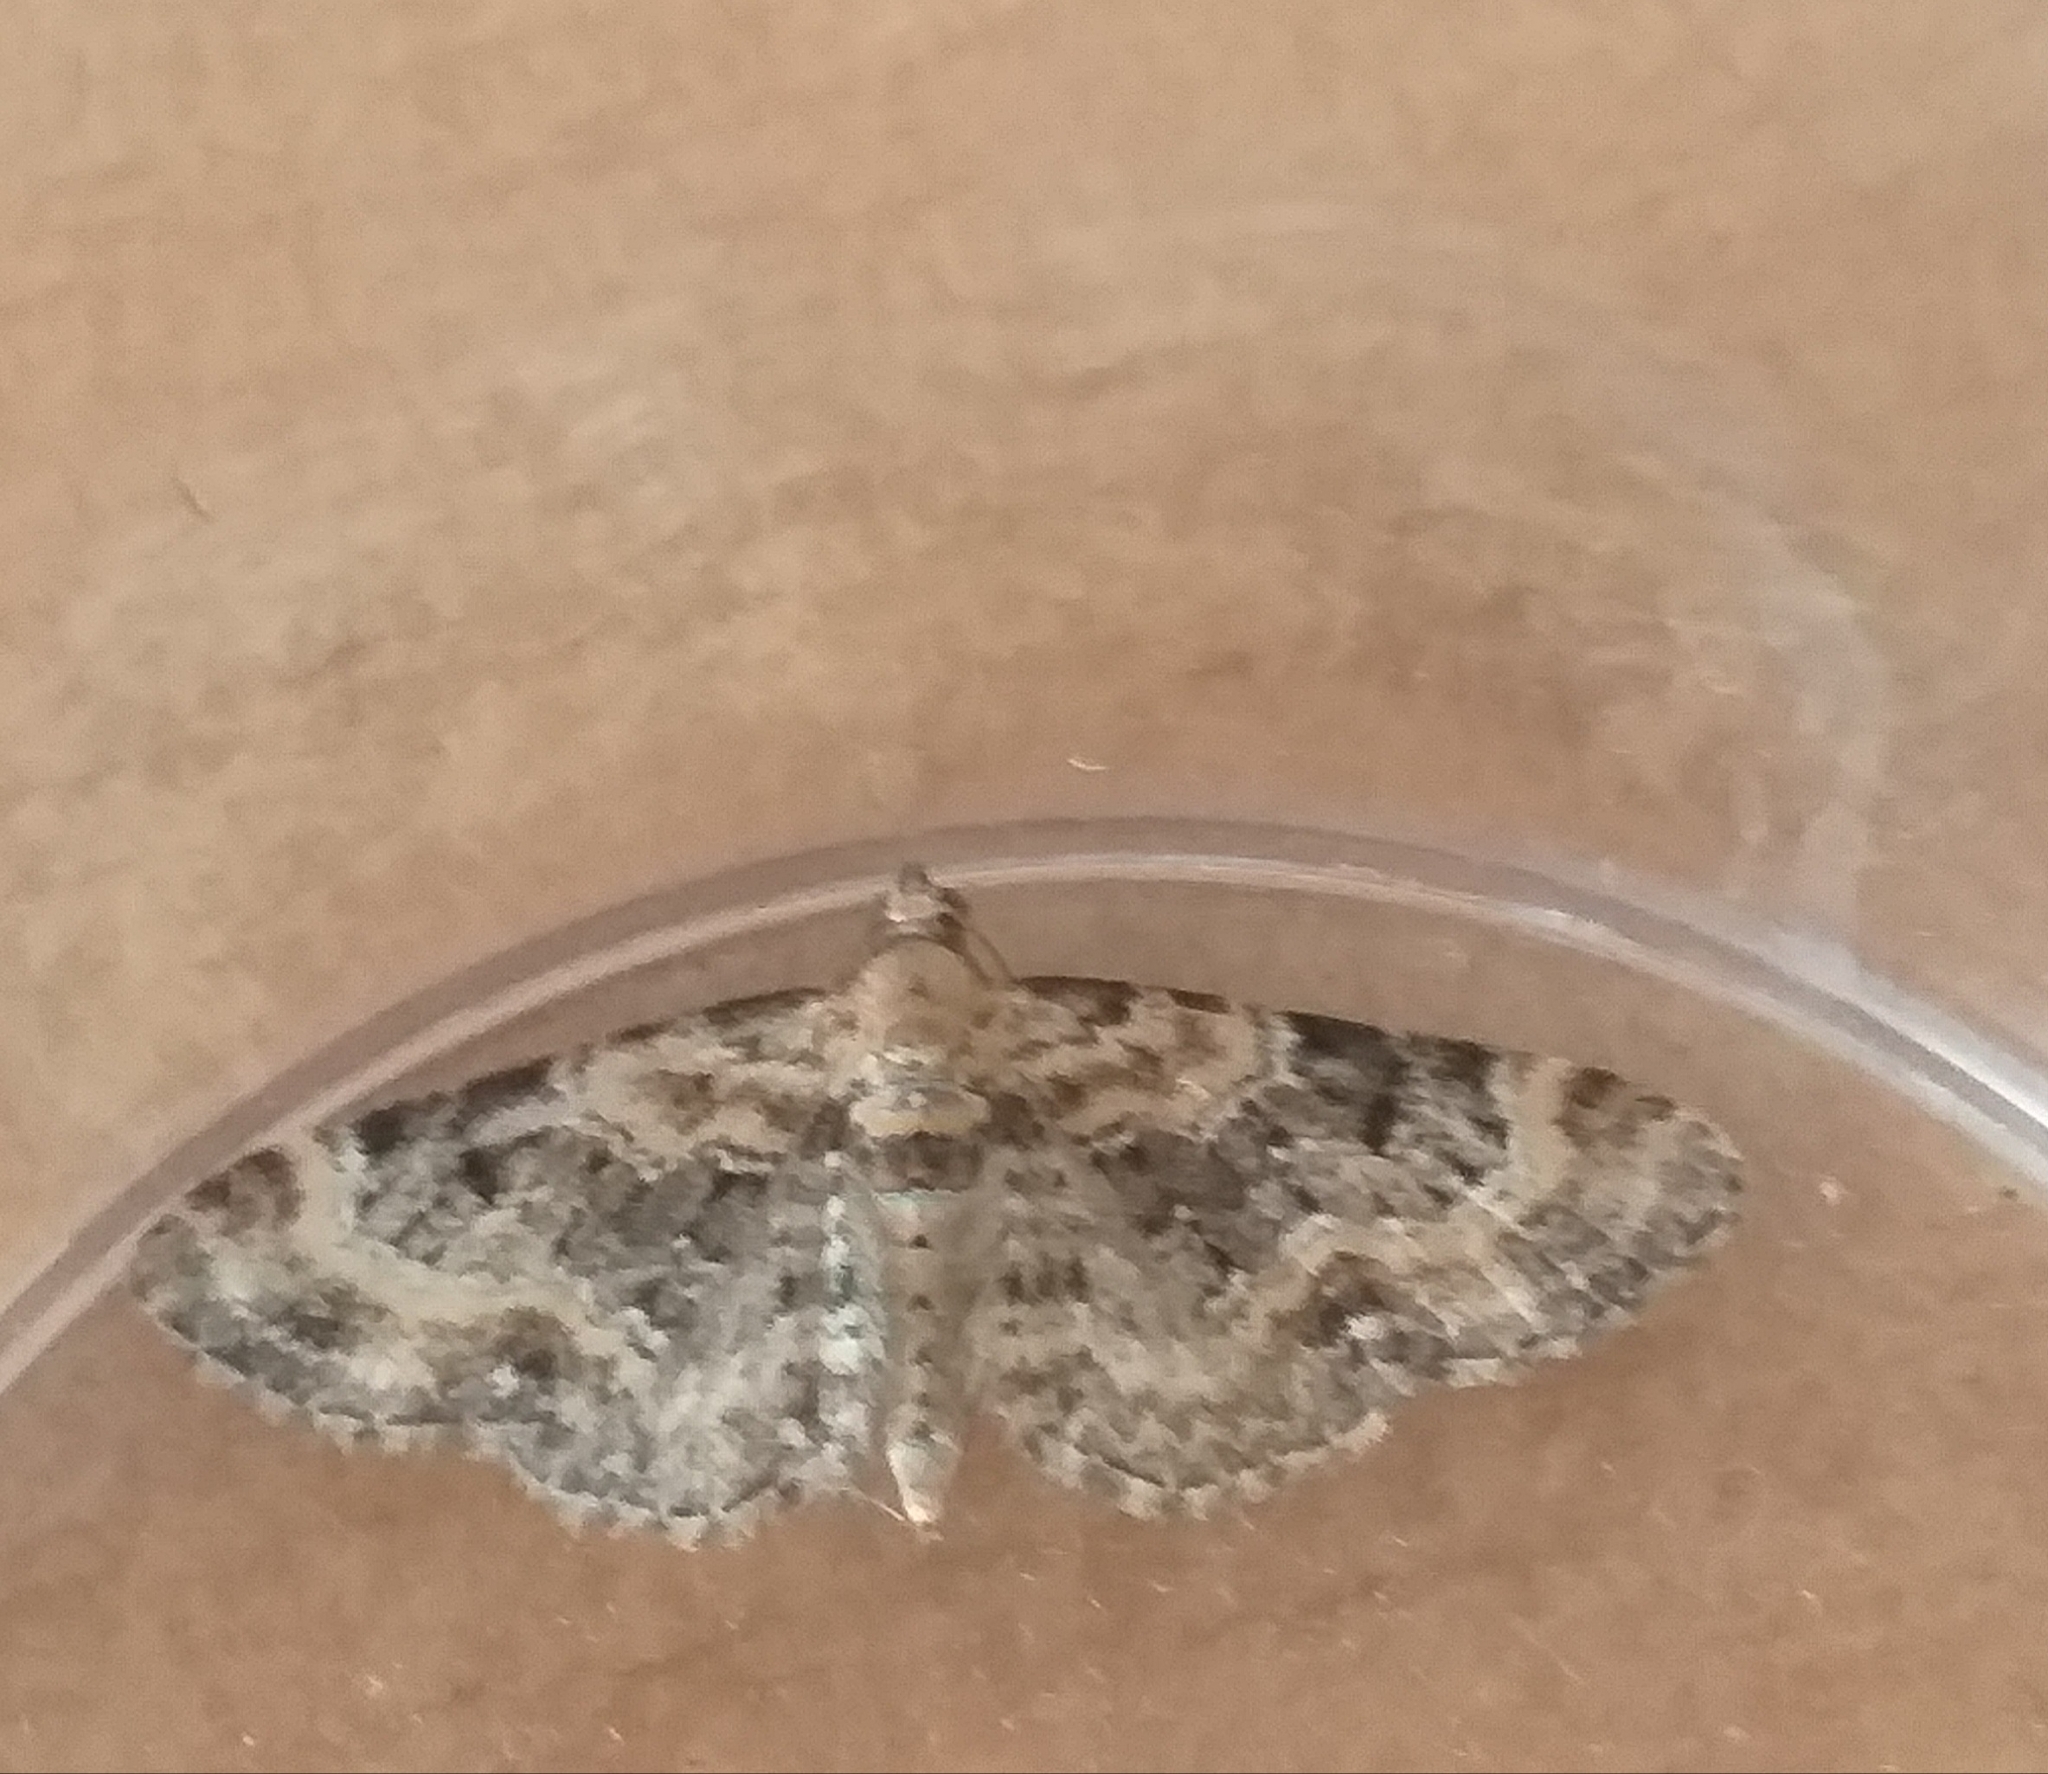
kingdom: Animalia
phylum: Arthropoda
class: Insecta
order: Lepidoptera
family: Geometridae
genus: Eupithecia
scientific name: Eupithecia pulchellata
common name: Foxglove pug
